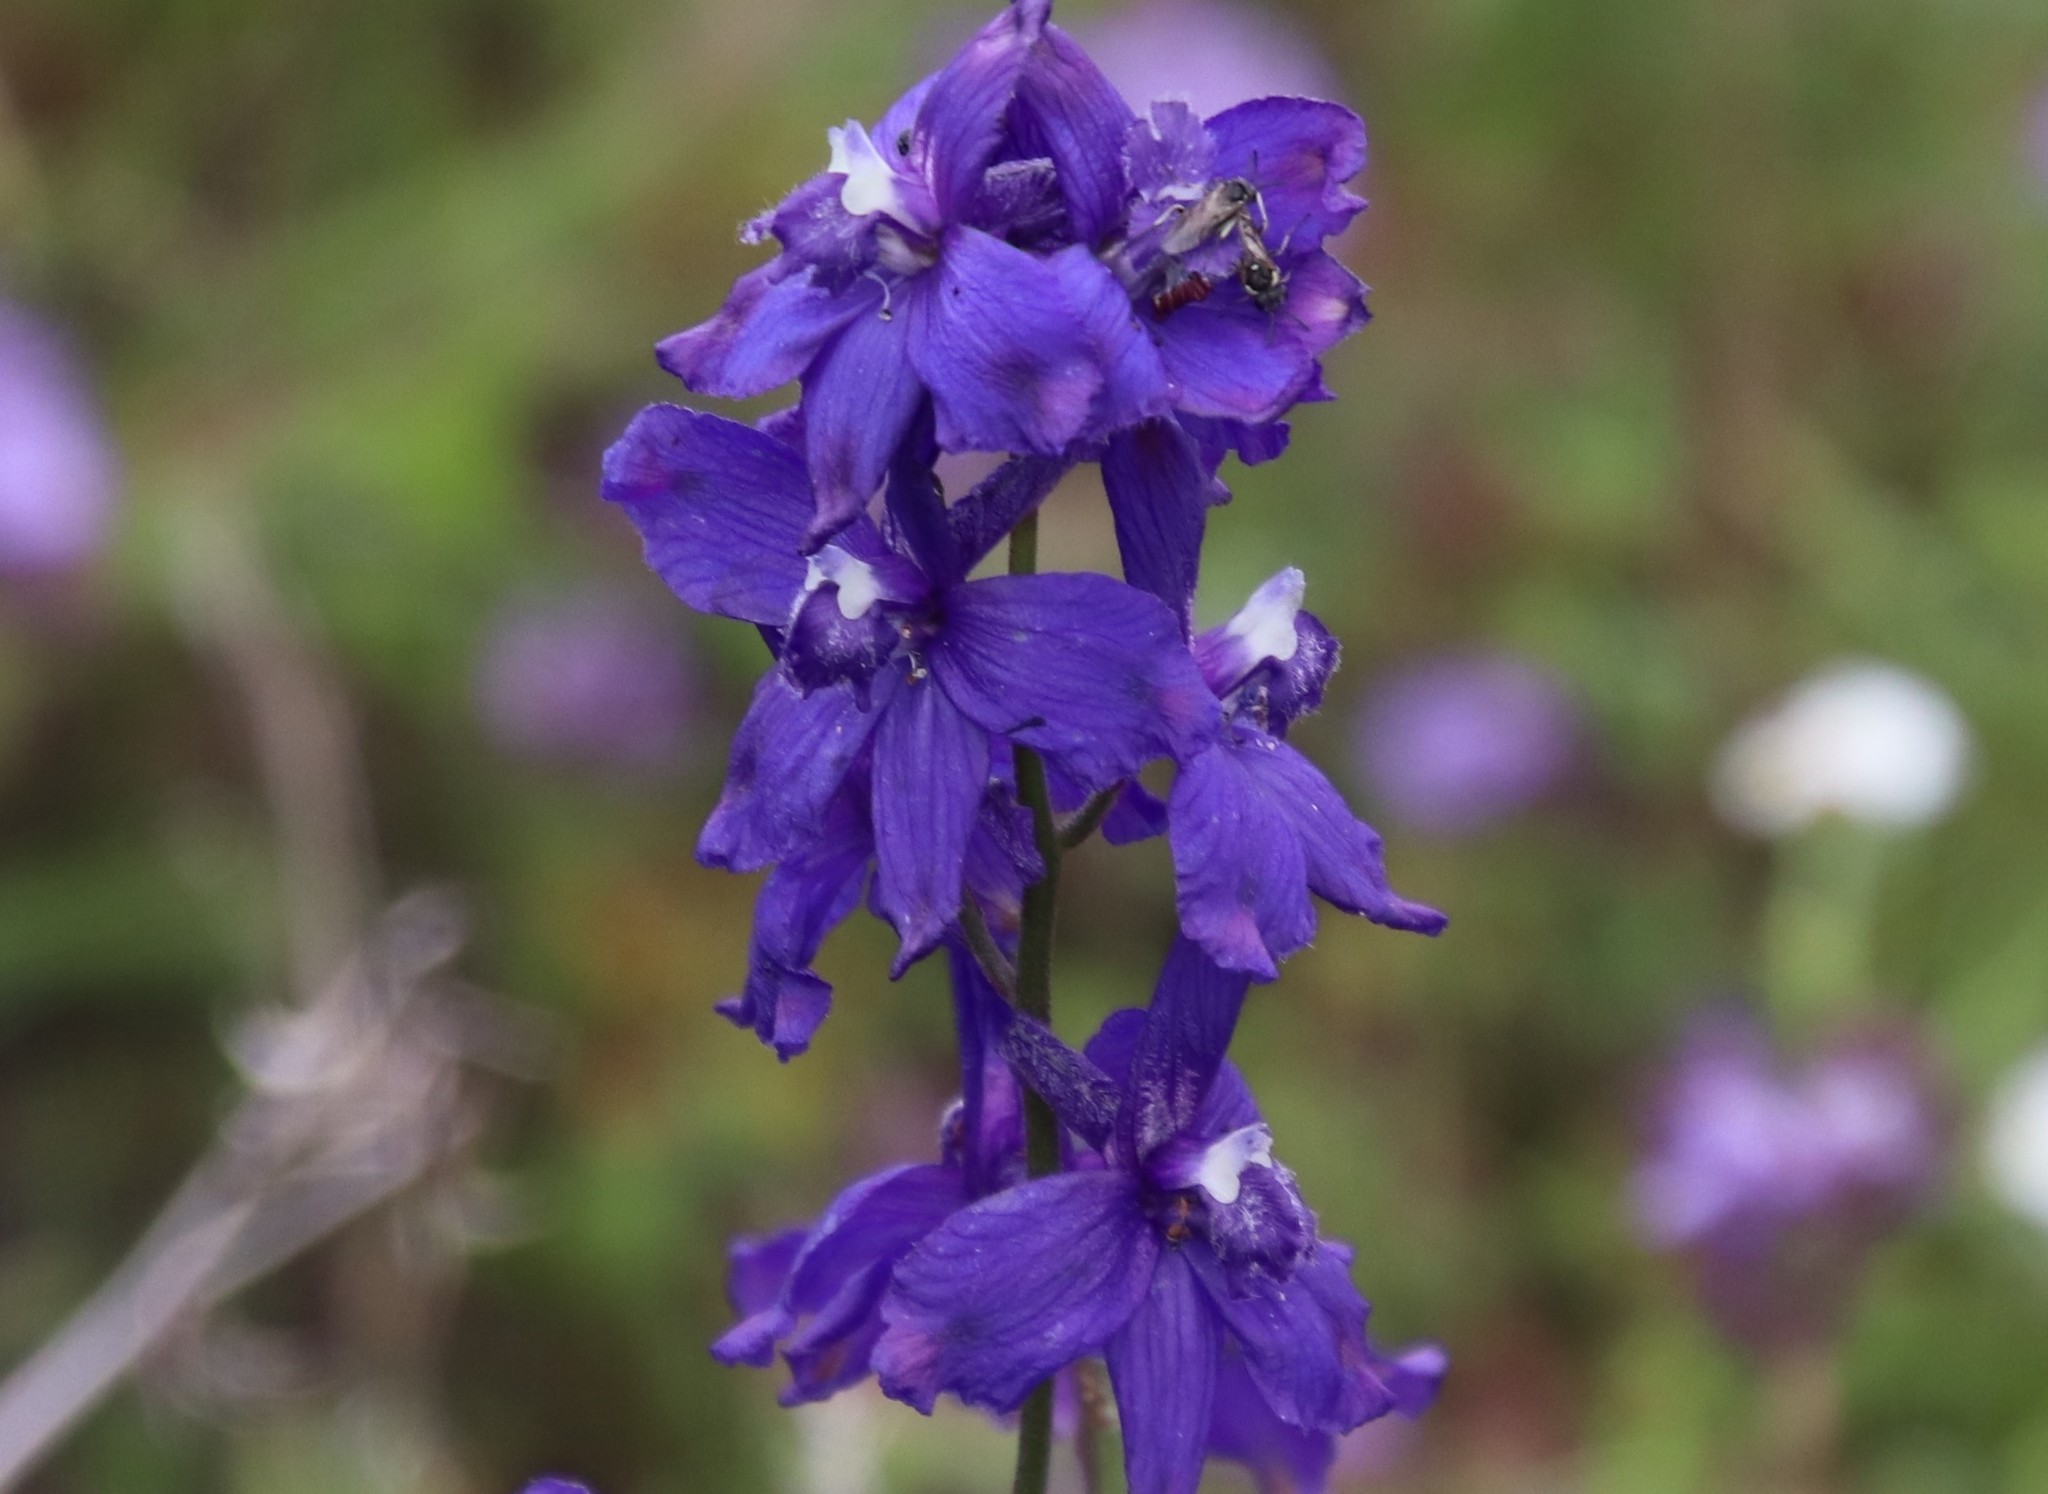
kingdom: Plantae
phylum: Tracheophyta
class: Magnoliopsida
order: Ranunculales
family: Ranunculaceae
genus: Delphinium
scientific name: Delphinium parryi
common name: Parry's larkspur
